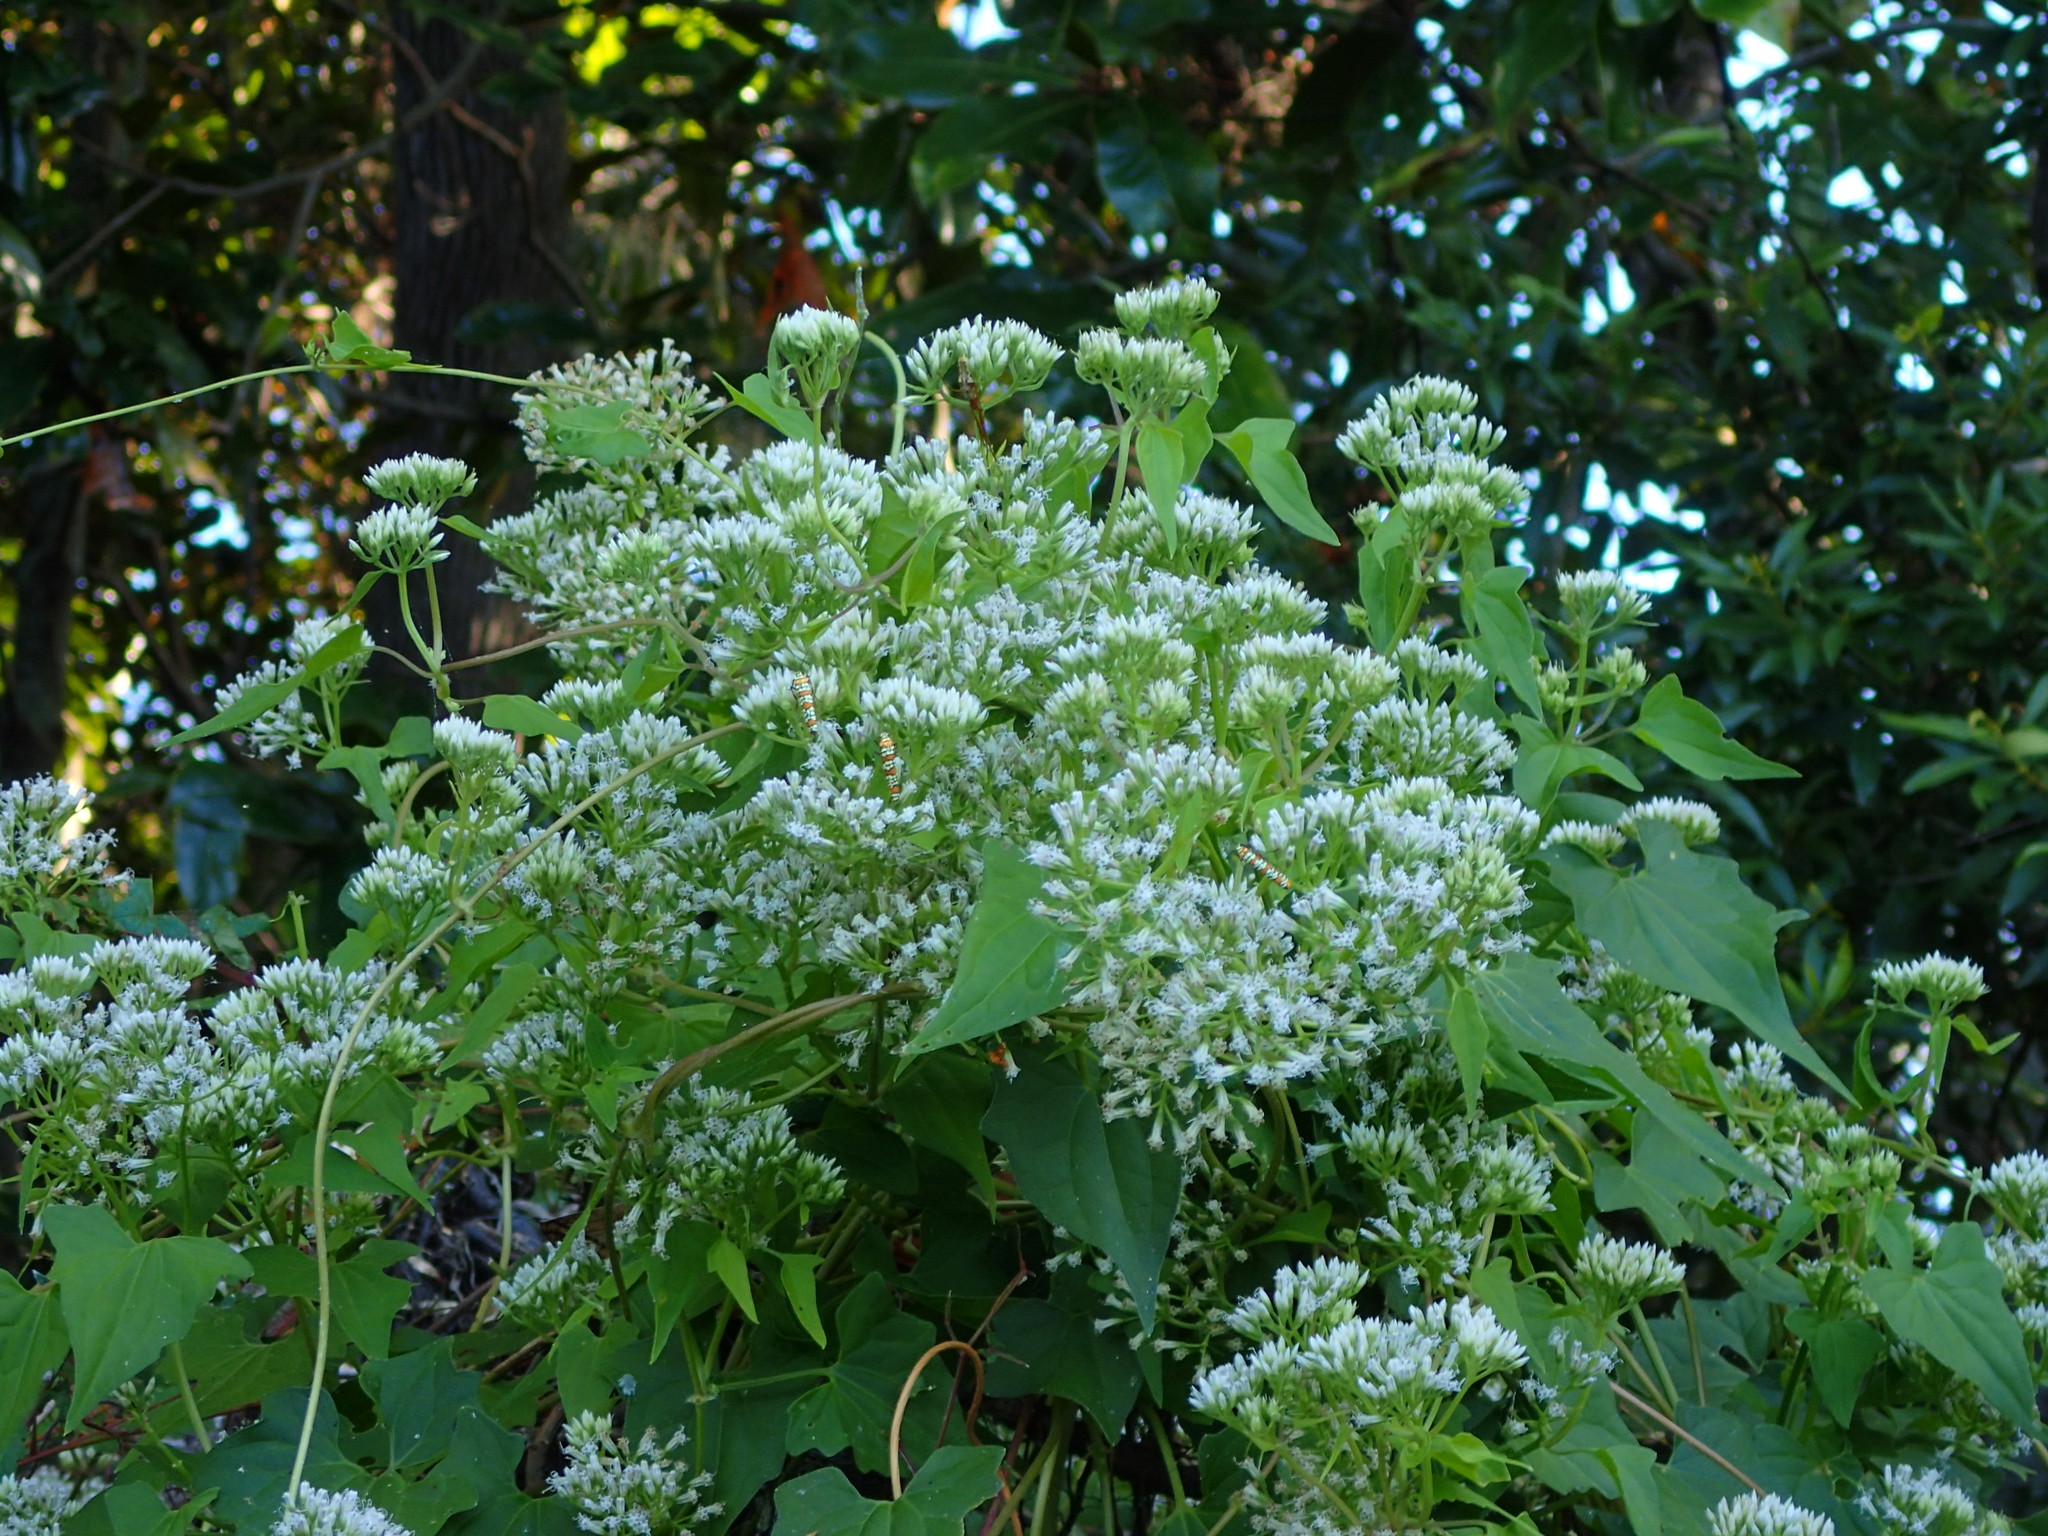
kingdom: Plantae
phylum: Tracheophyta
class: Magnoliopsida
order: Asterales
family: Asteraceae
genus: Mikania
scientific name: Mikania scandens
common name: Climbing hempvine
